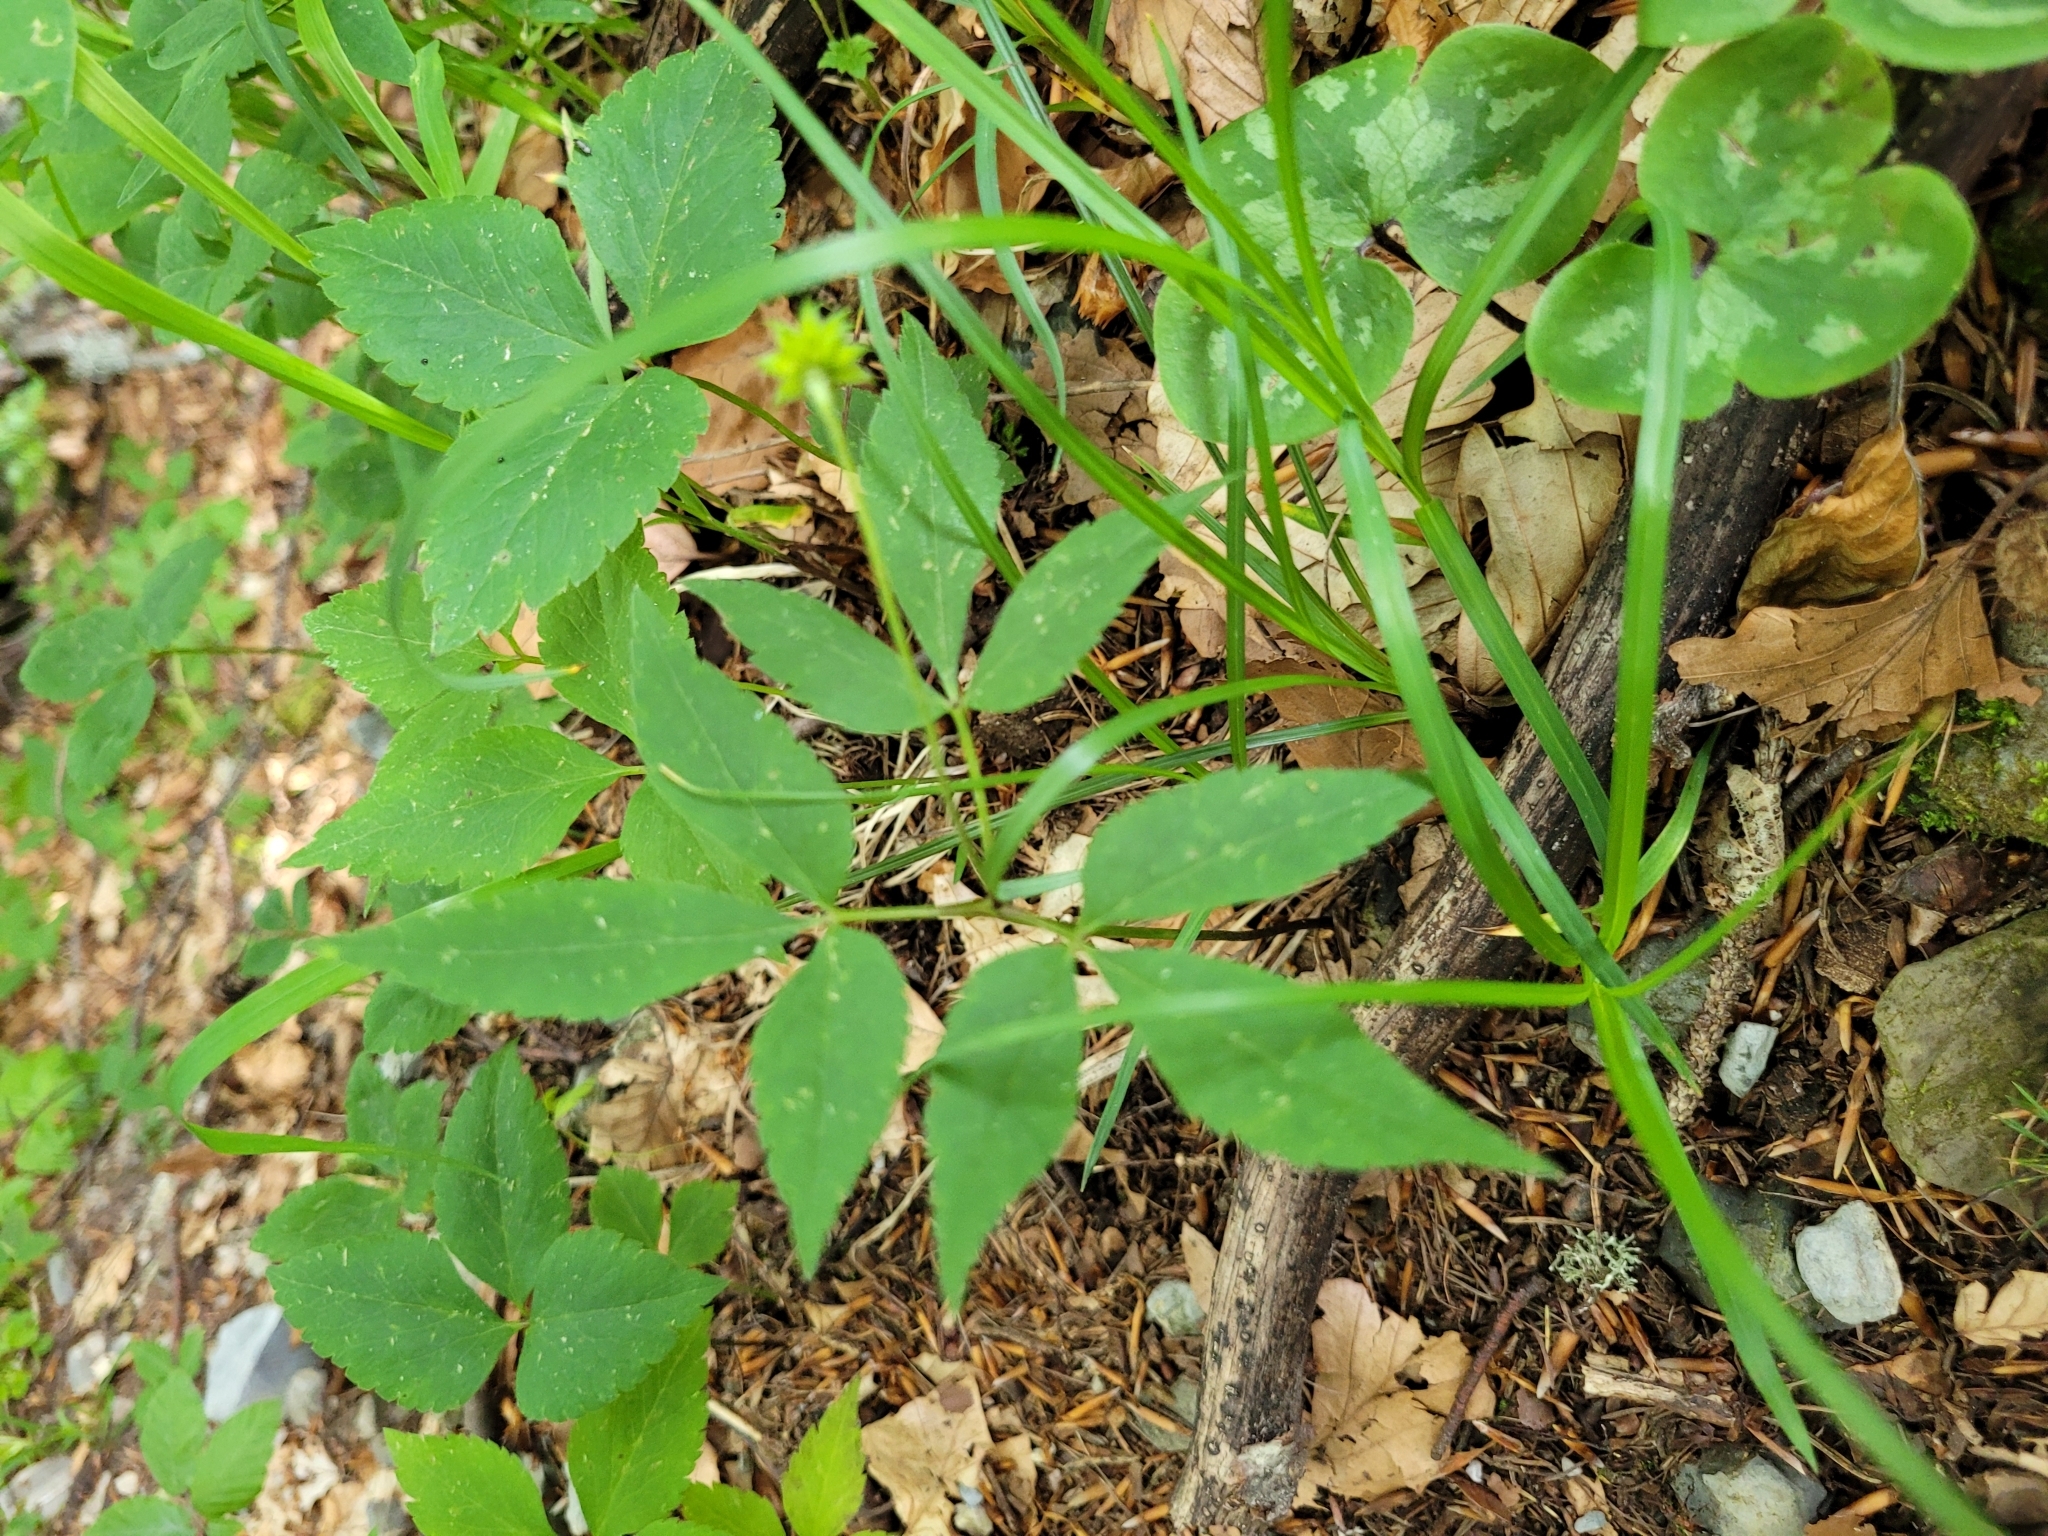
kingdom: Plantae
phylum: Tracheophyta
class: Magnoliopsida
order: Ranunculales
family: Ranunculaceae
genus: Anemone
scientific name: Anemone trifolia
